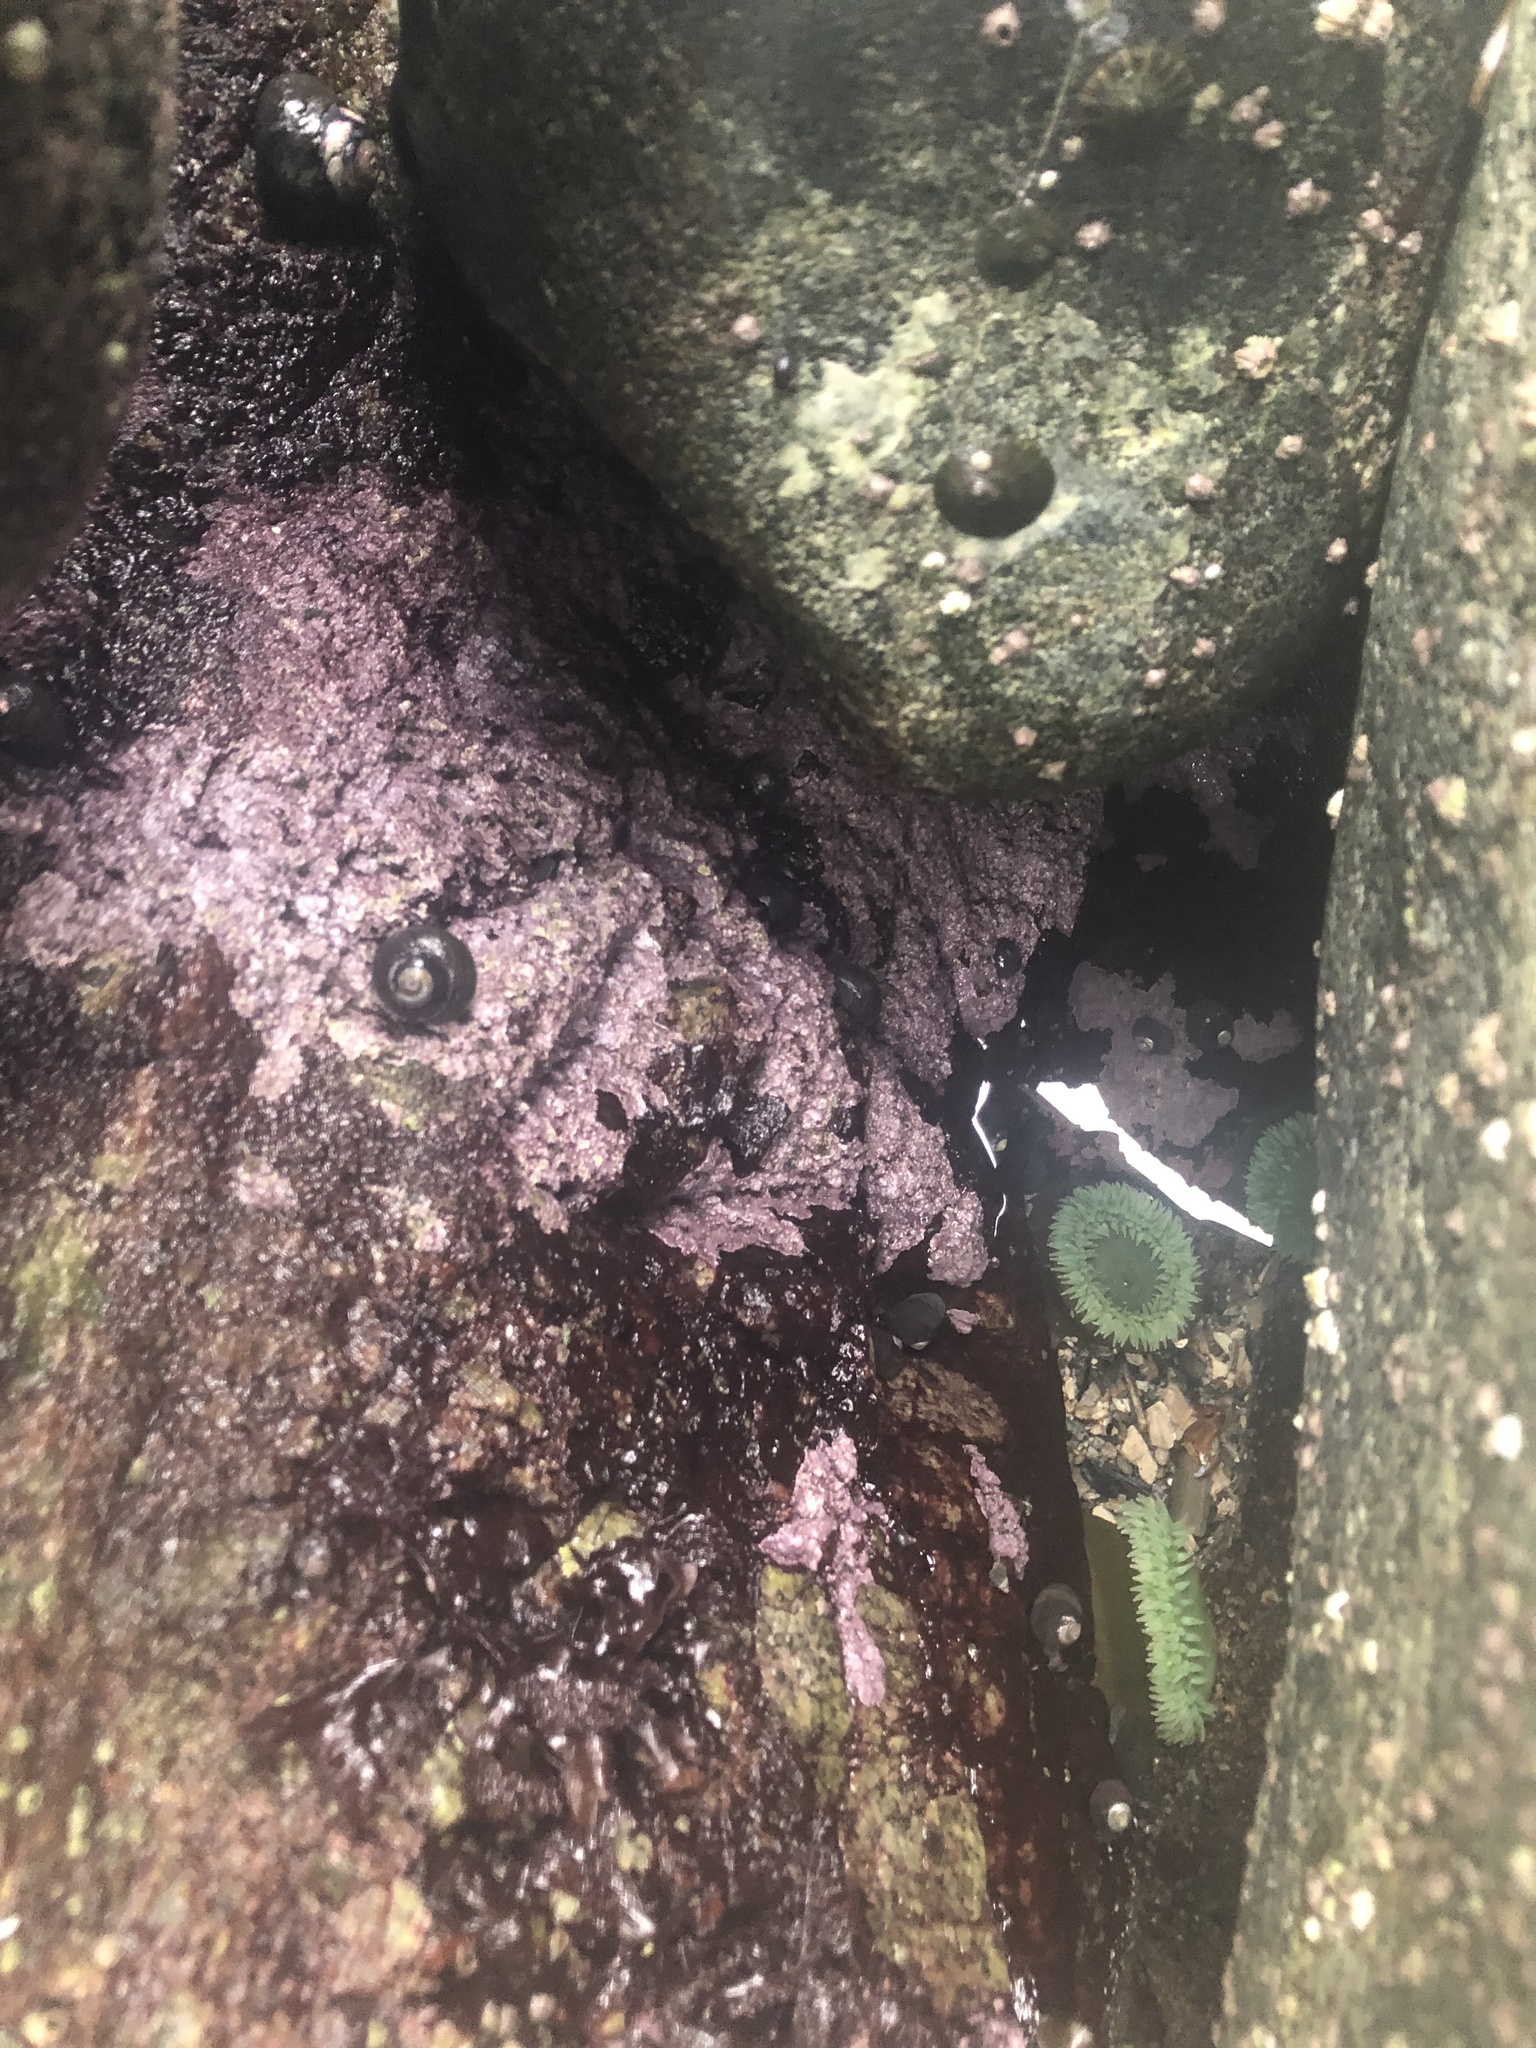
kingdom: Plantae
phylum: Rhodophyta
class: Florideophyceae
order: Corallinales
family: Corallinaceae
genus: Chamberlainium
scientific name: Chamberlainium tumidum
